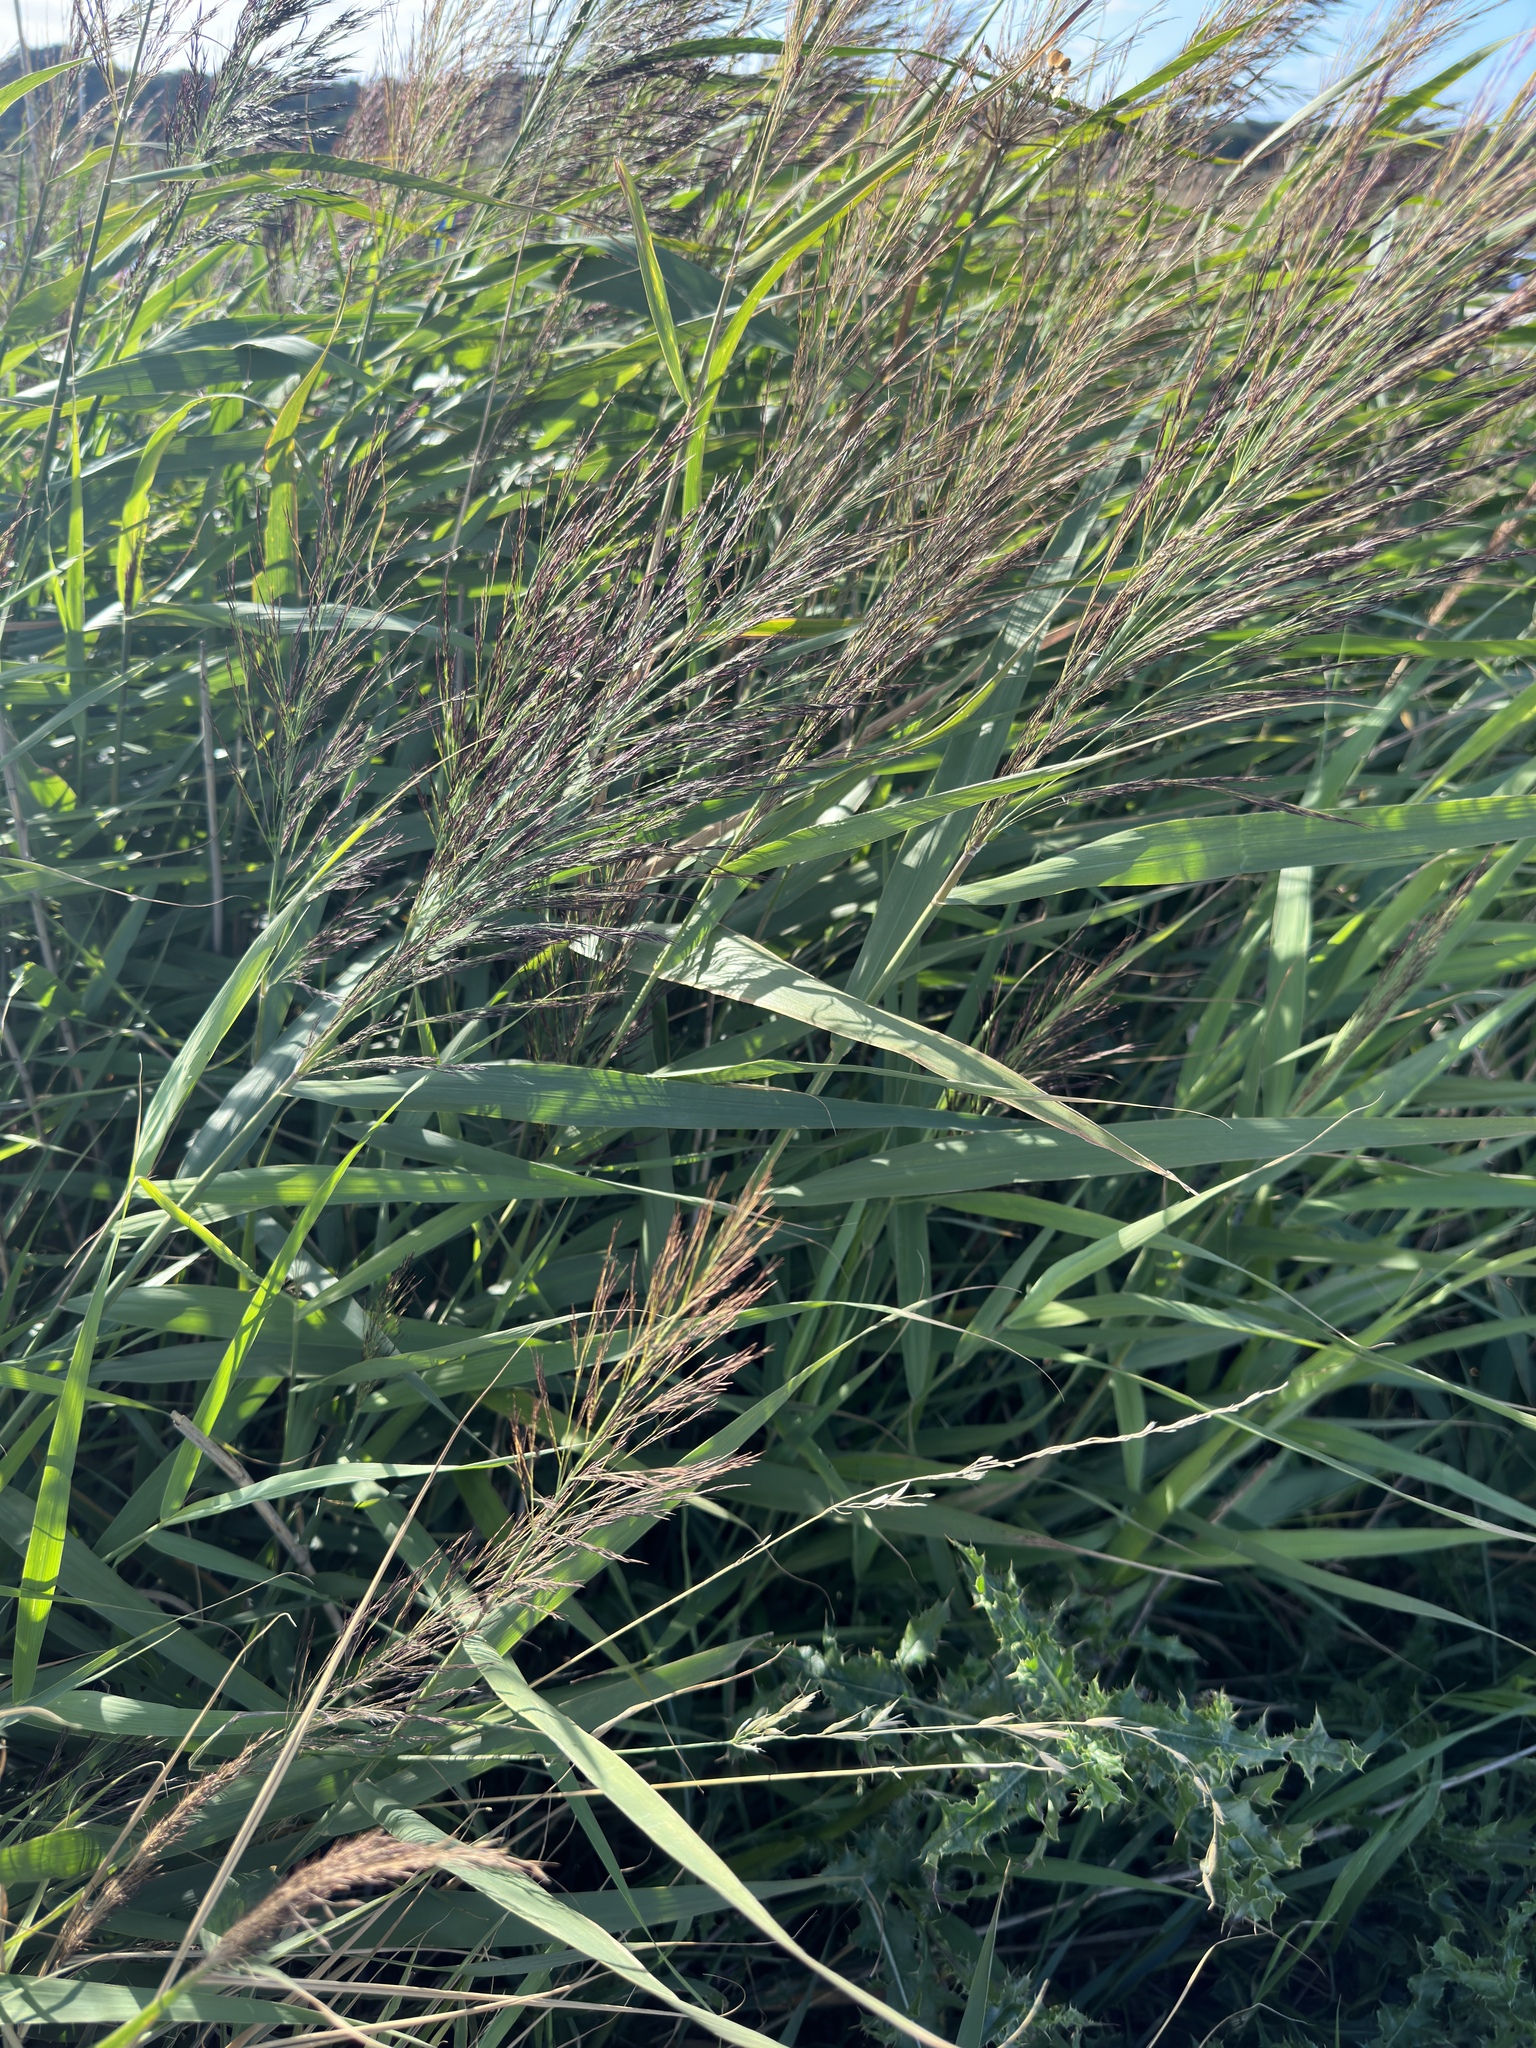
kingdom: Plantae
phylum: Tracheophyta
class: Liliopsida
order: Poales
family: Poaceae
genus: Phragmites
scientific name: Phragmites australis
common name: Common reed
